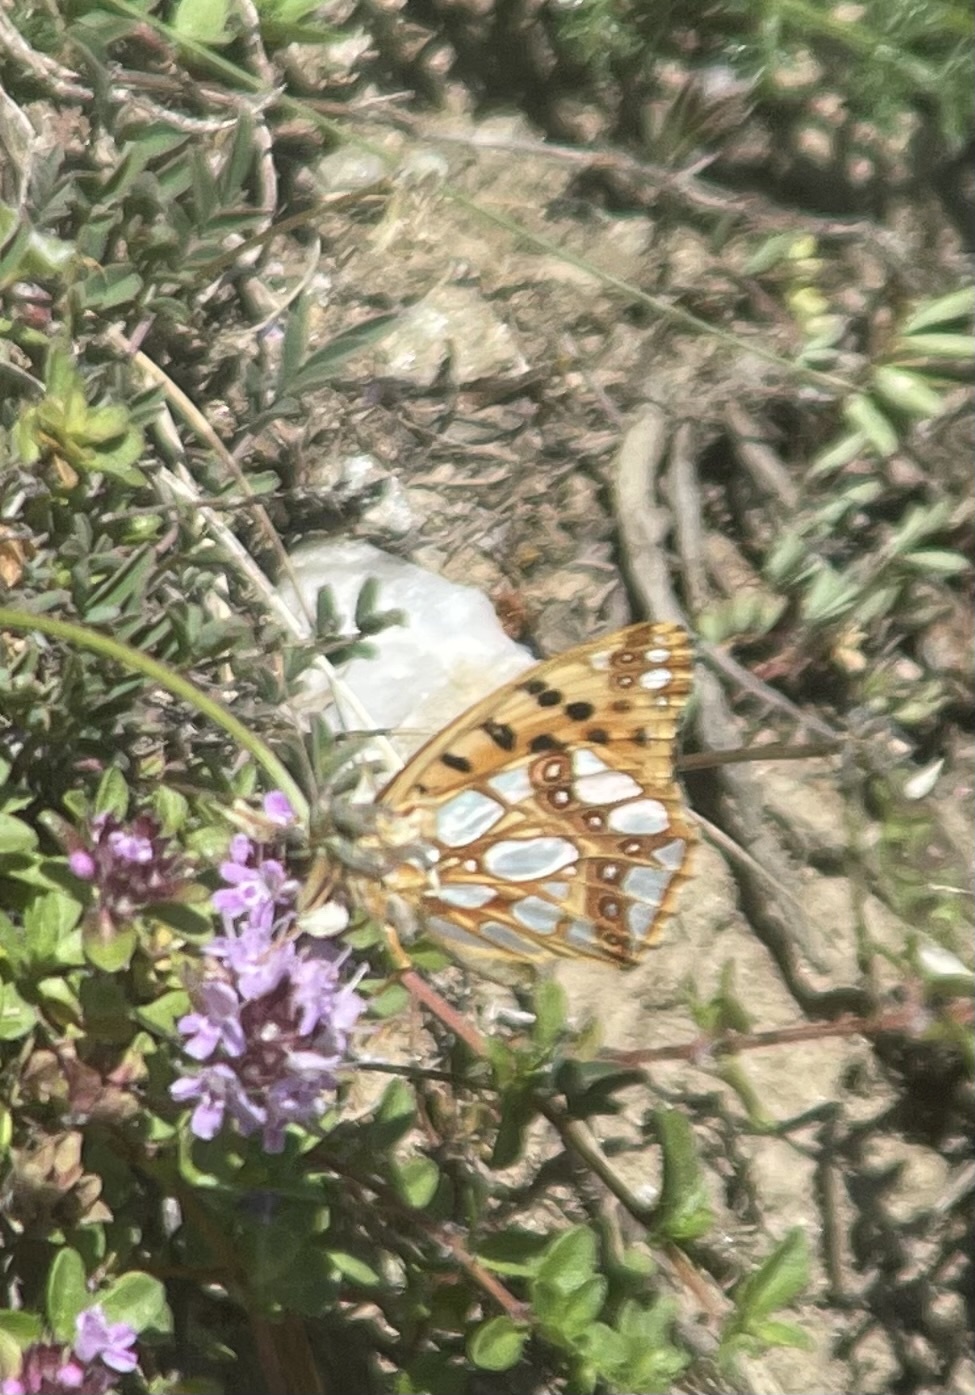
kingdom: Animalia
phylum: Arthropoda
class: Insecta
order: Lepidoptera
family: Nymphalidae
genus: Issoria
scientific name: Issoria lathonia
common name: Queen of spain fritillary
